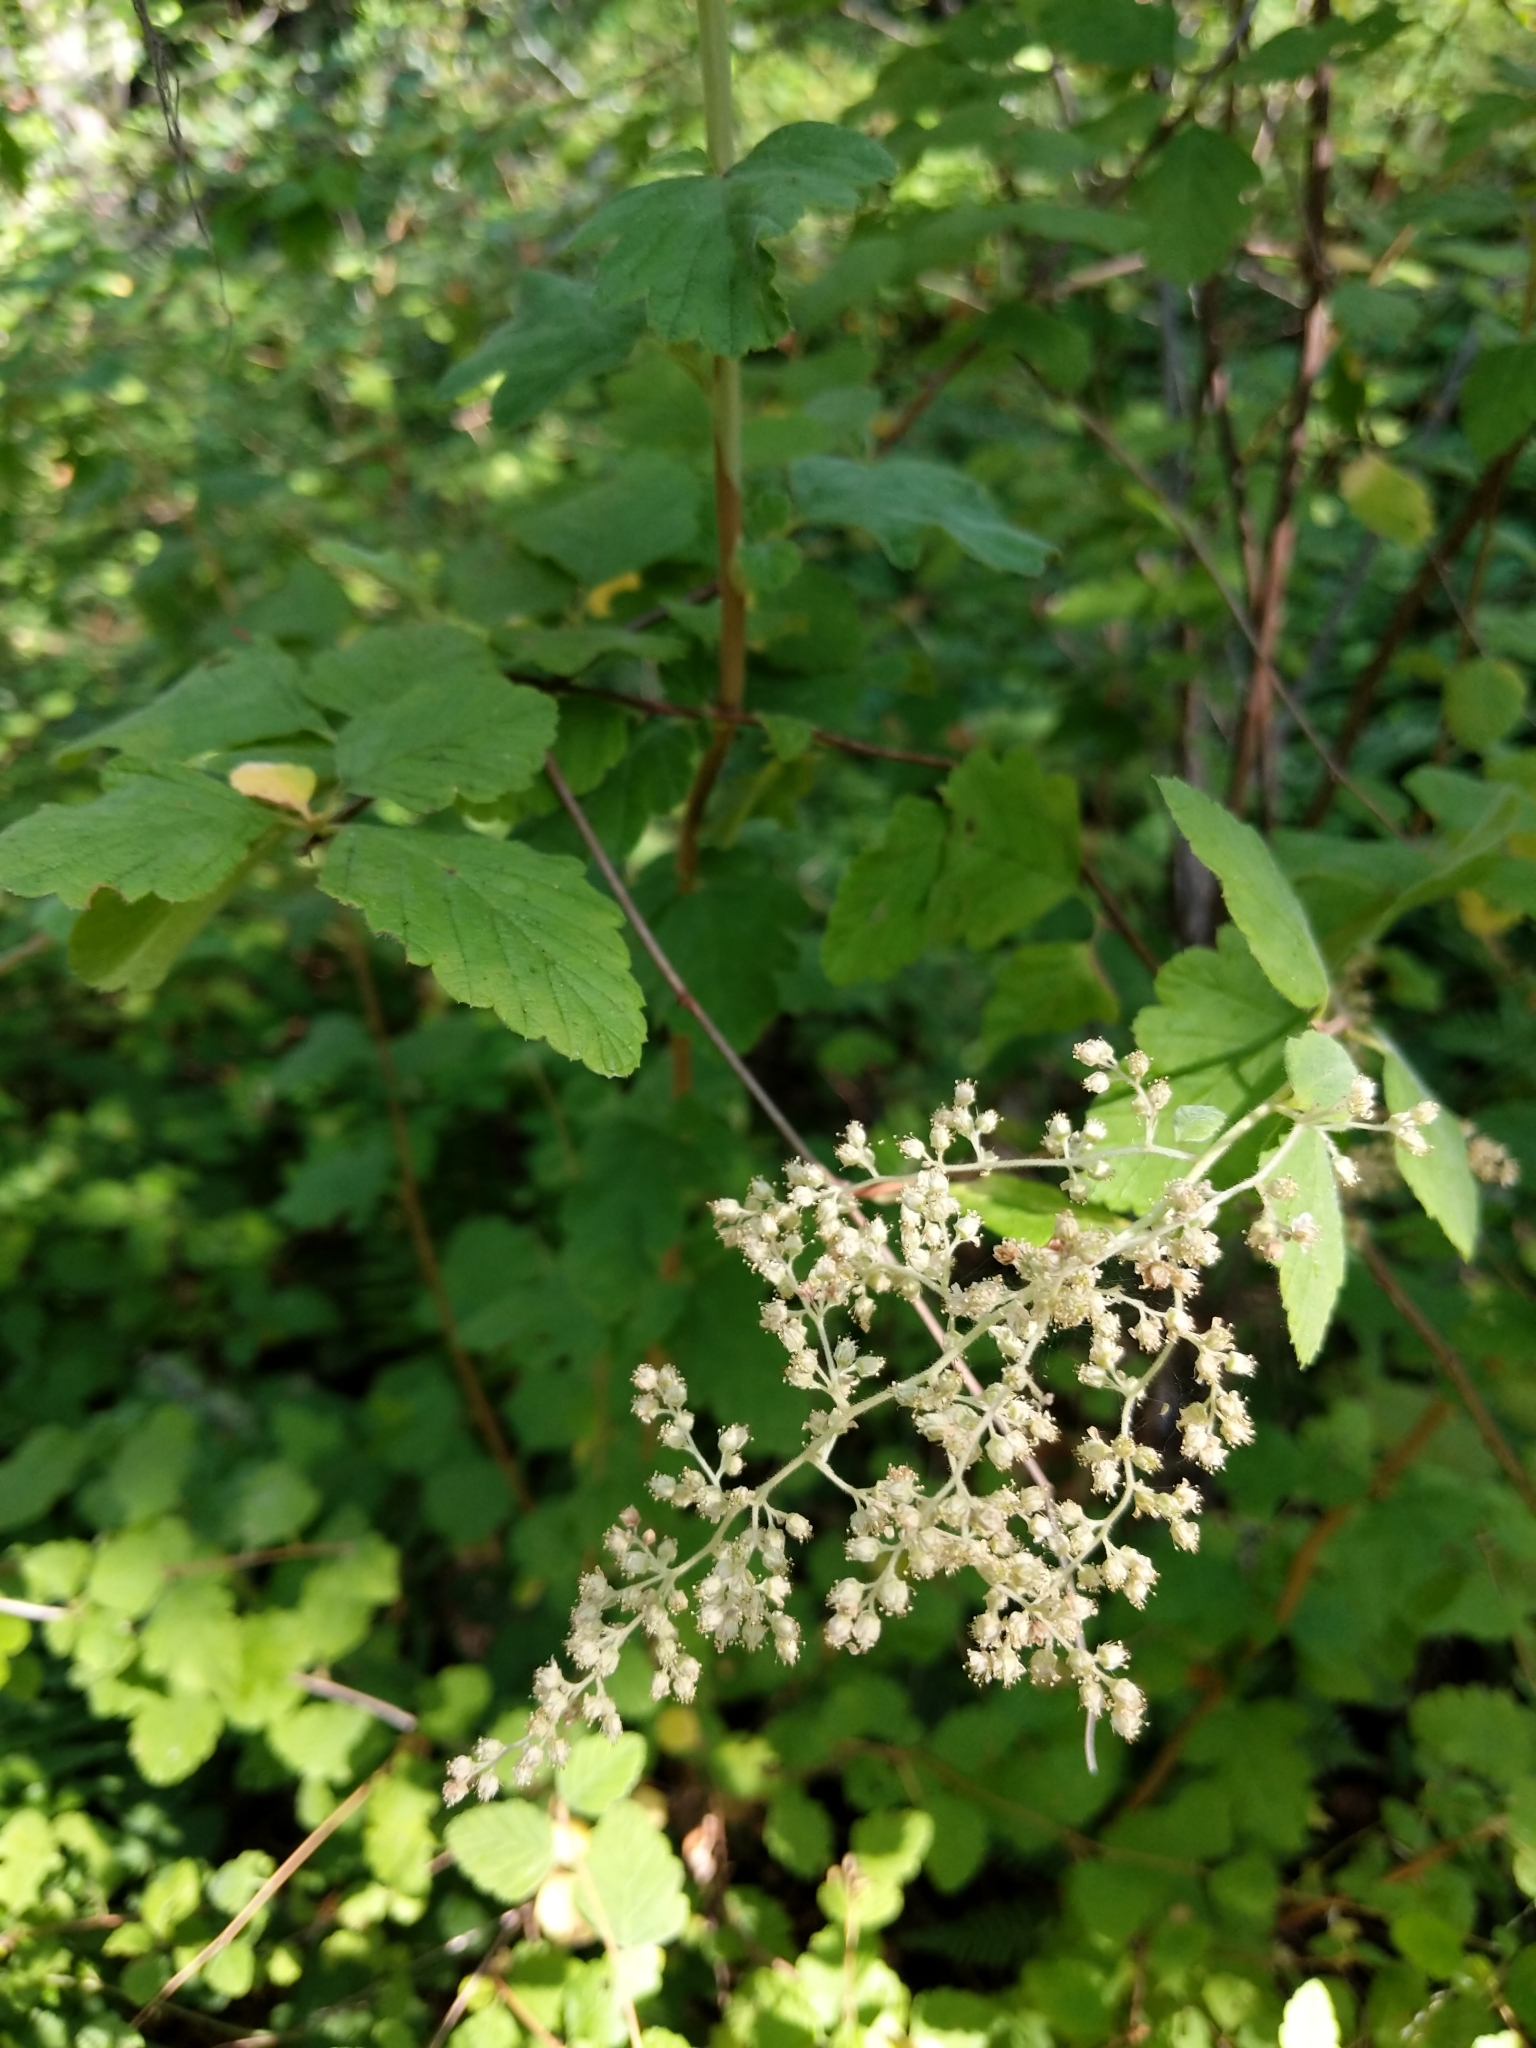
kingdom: Plantae
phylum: Tracheophyta
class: Magnoliopsida
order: Rosales
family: Rosaceae
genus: Holodiscus
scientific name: Holodiscus discolor
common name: Oceanspray
